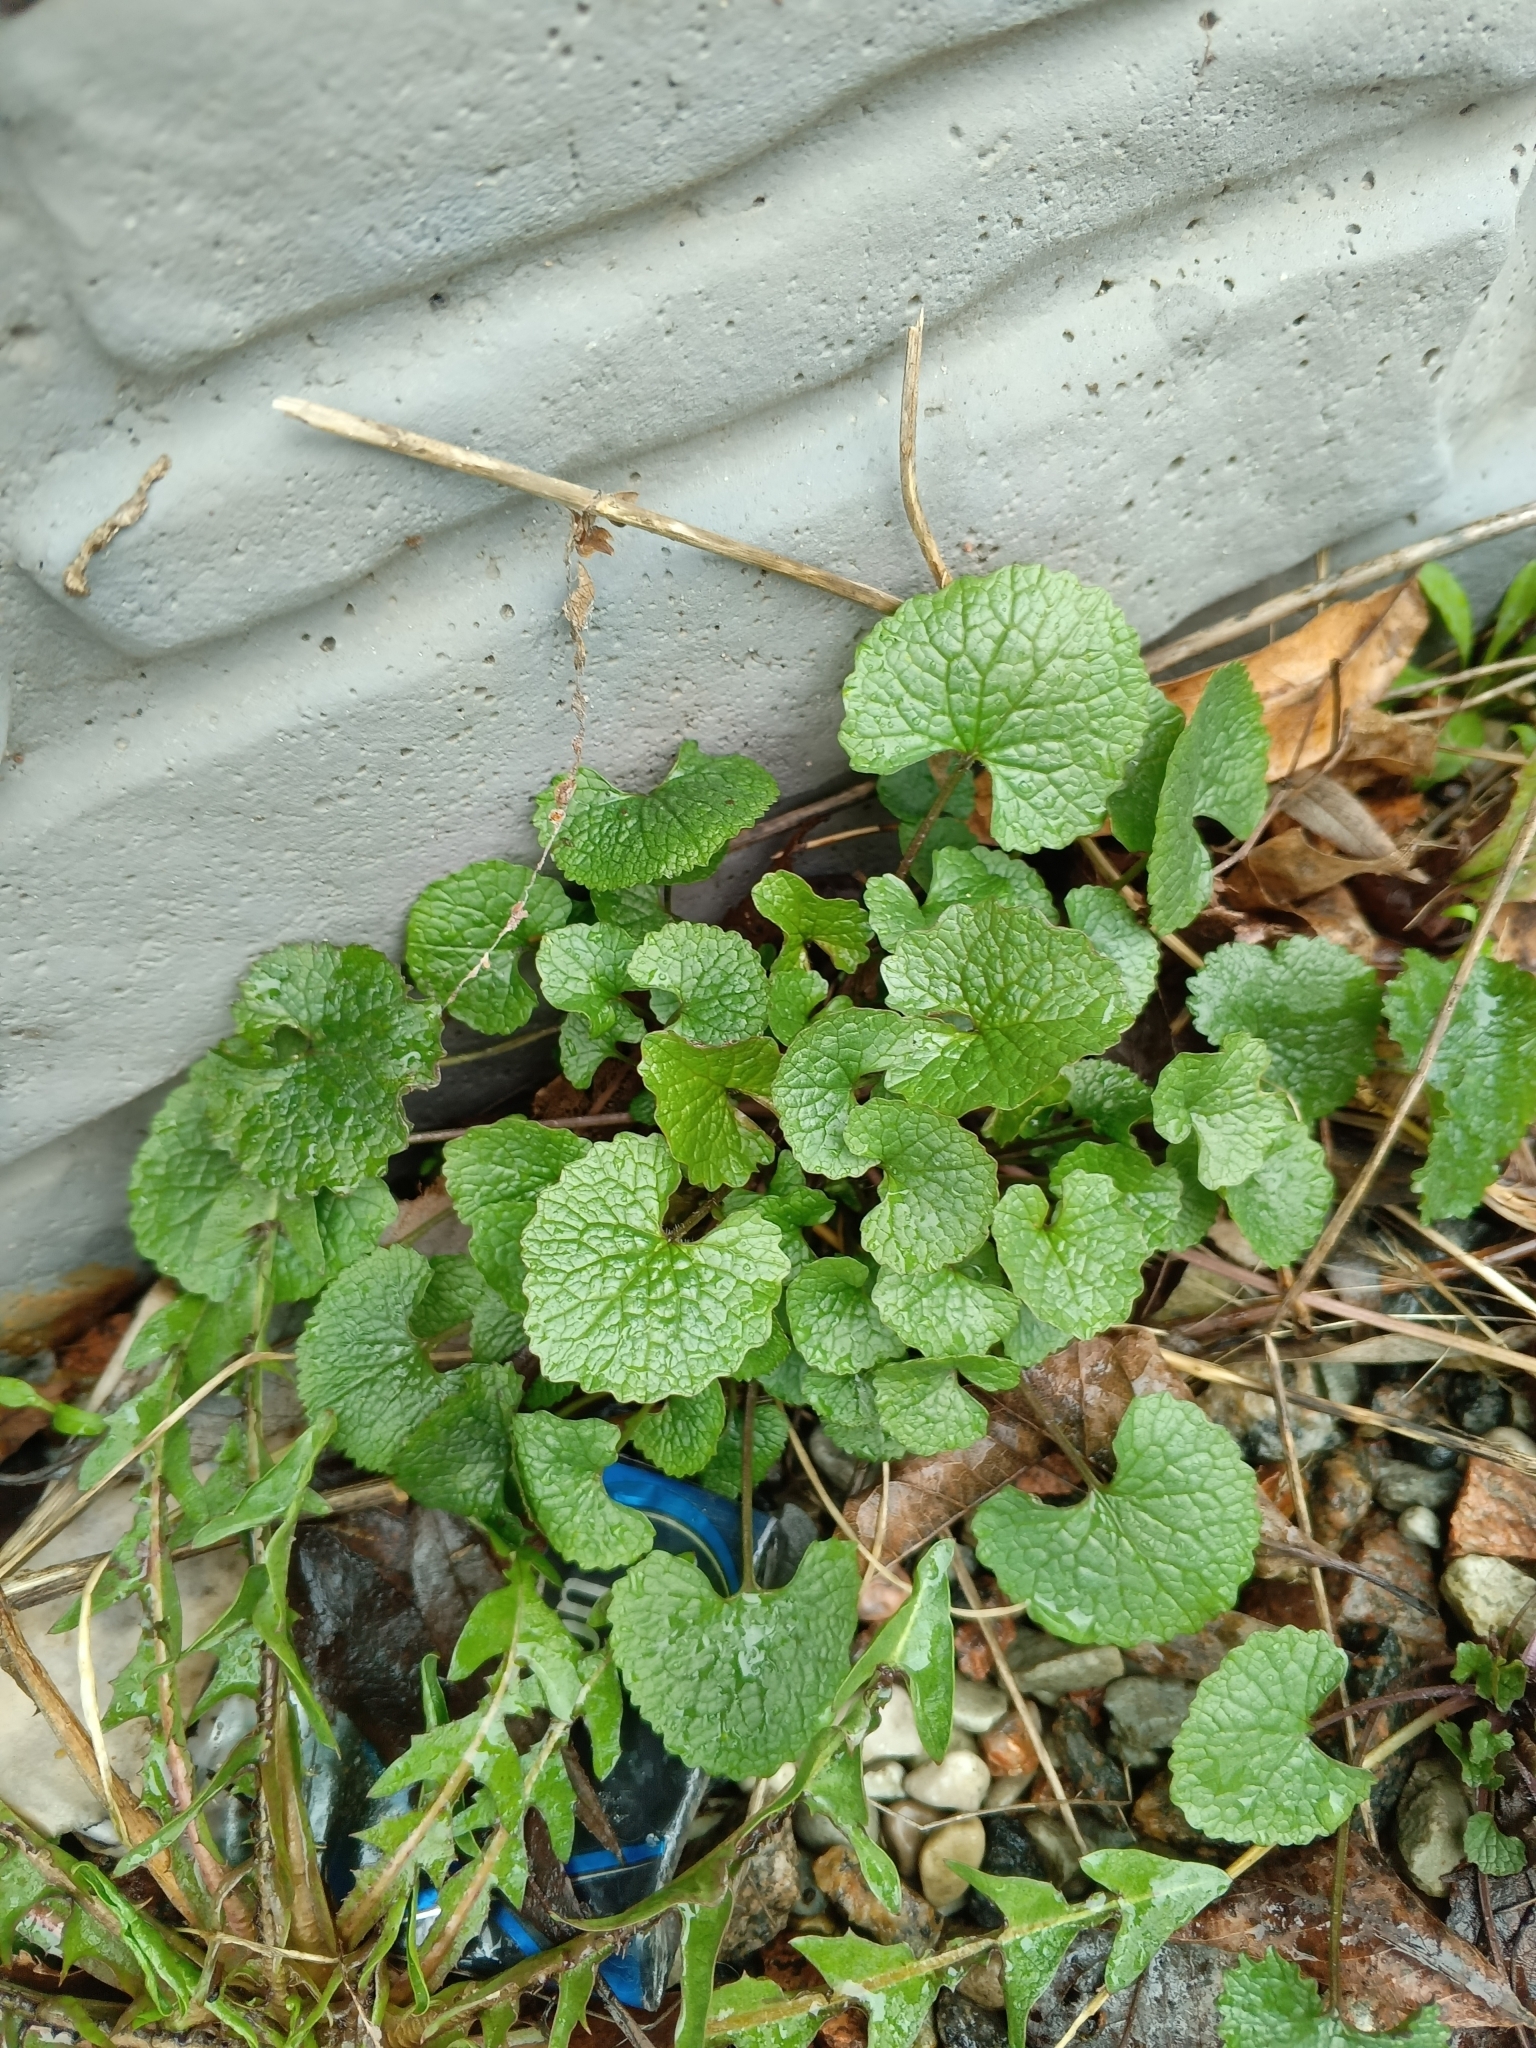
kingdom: Plantae
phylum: Tracheophyta
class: Magnoliopsida
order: Brassicales
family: Brassicaceae
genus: Alliaria
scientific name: Alliaria petiolata
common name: Garlic mustard
